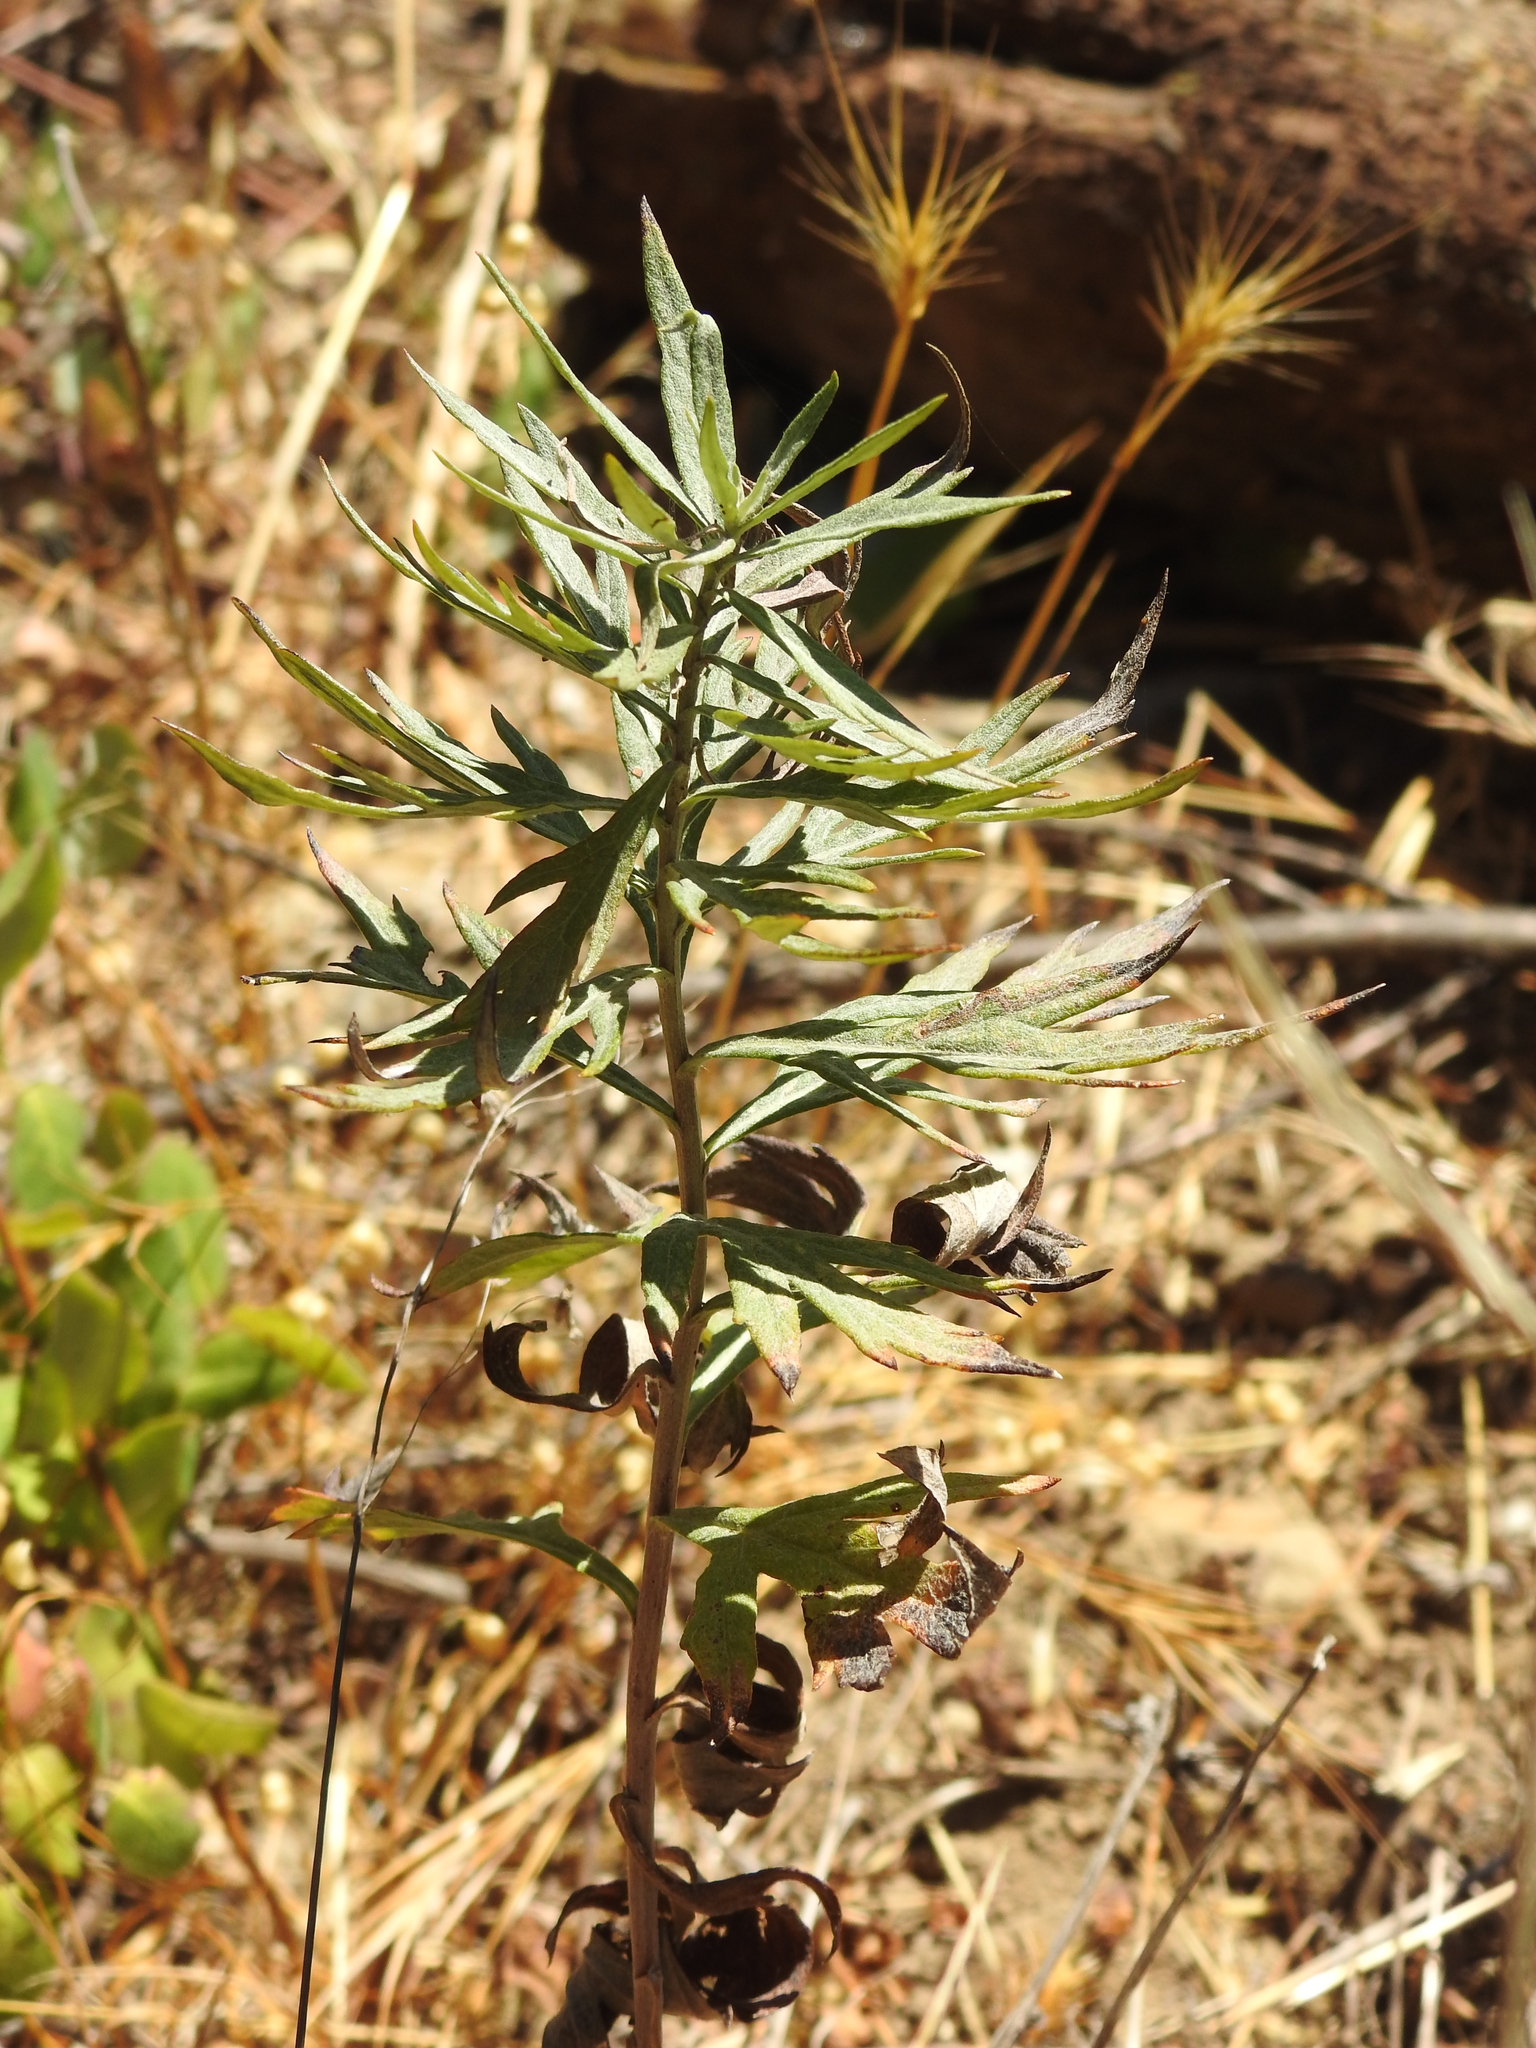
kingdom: Plantae
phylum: Tracheophyta
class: Magnoliopsida
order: Asterales
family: Asteraceae
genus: Artemisia
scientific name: Artemisia douglasiana
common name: Northwest mugwort
